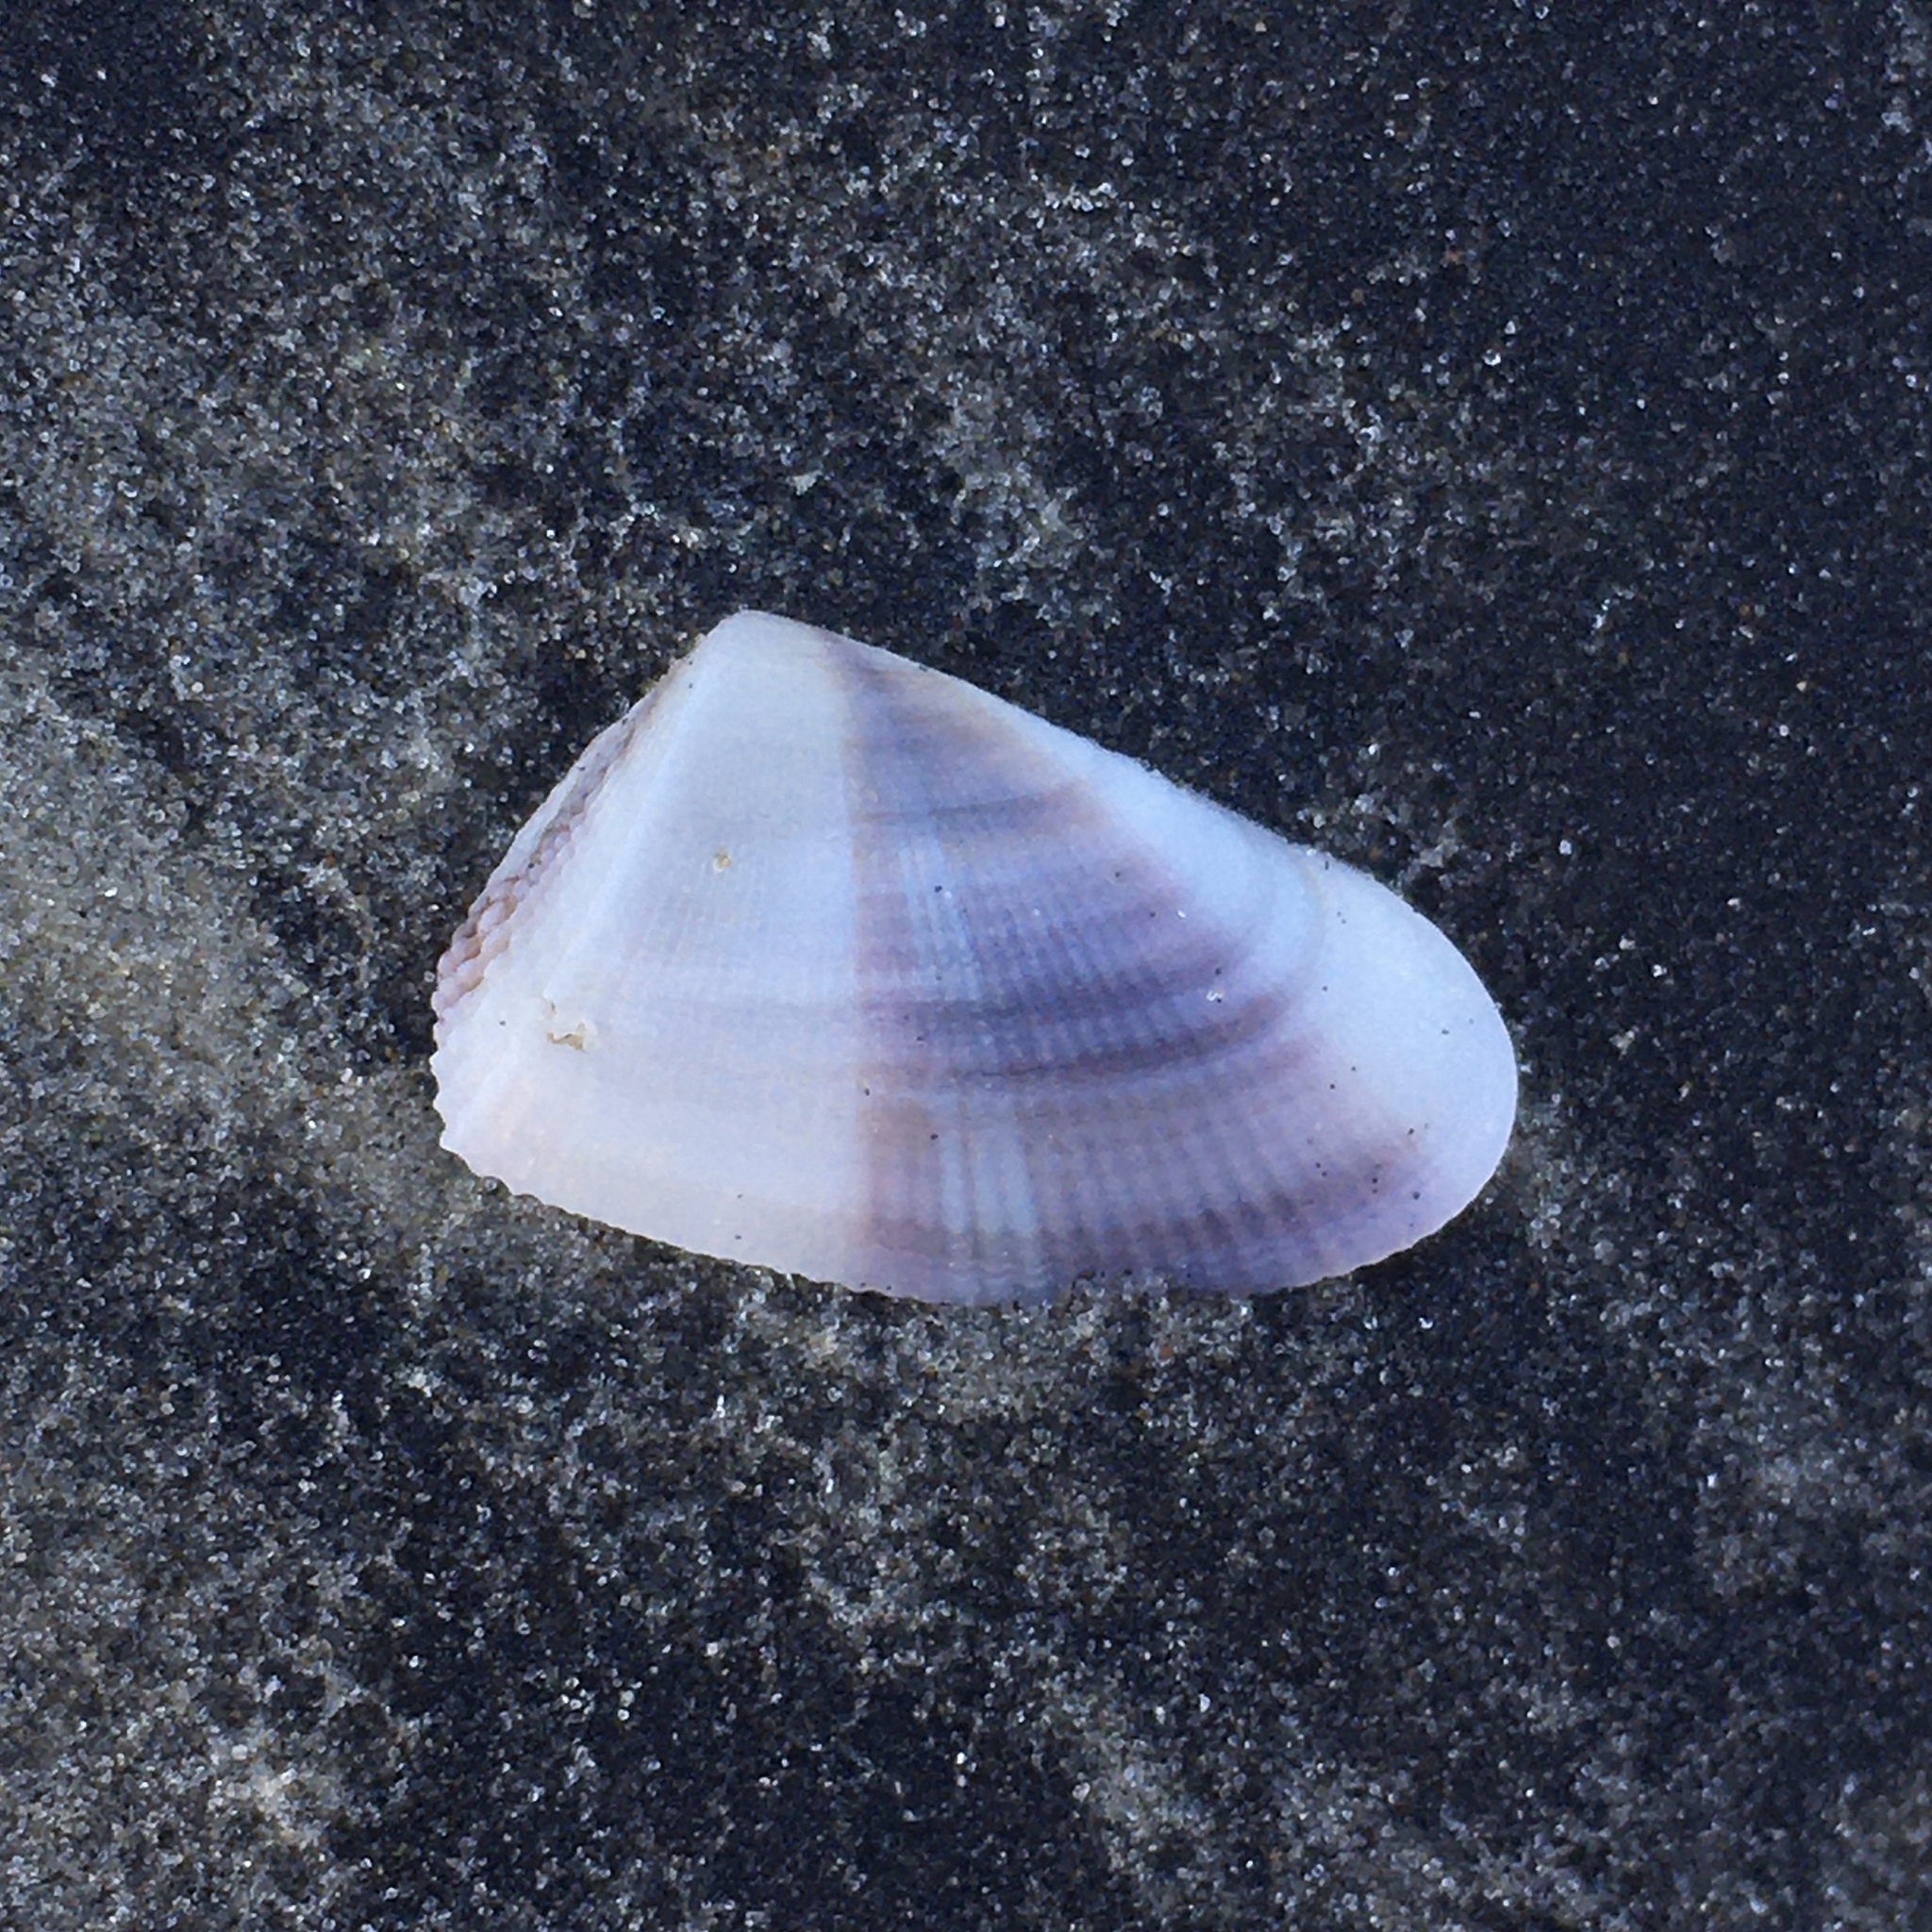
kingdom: Animalia
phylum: Mollusca
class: Bivalvia
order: Cardiida
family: Donacidae
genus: Donax
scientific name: Donax hanleyanus
